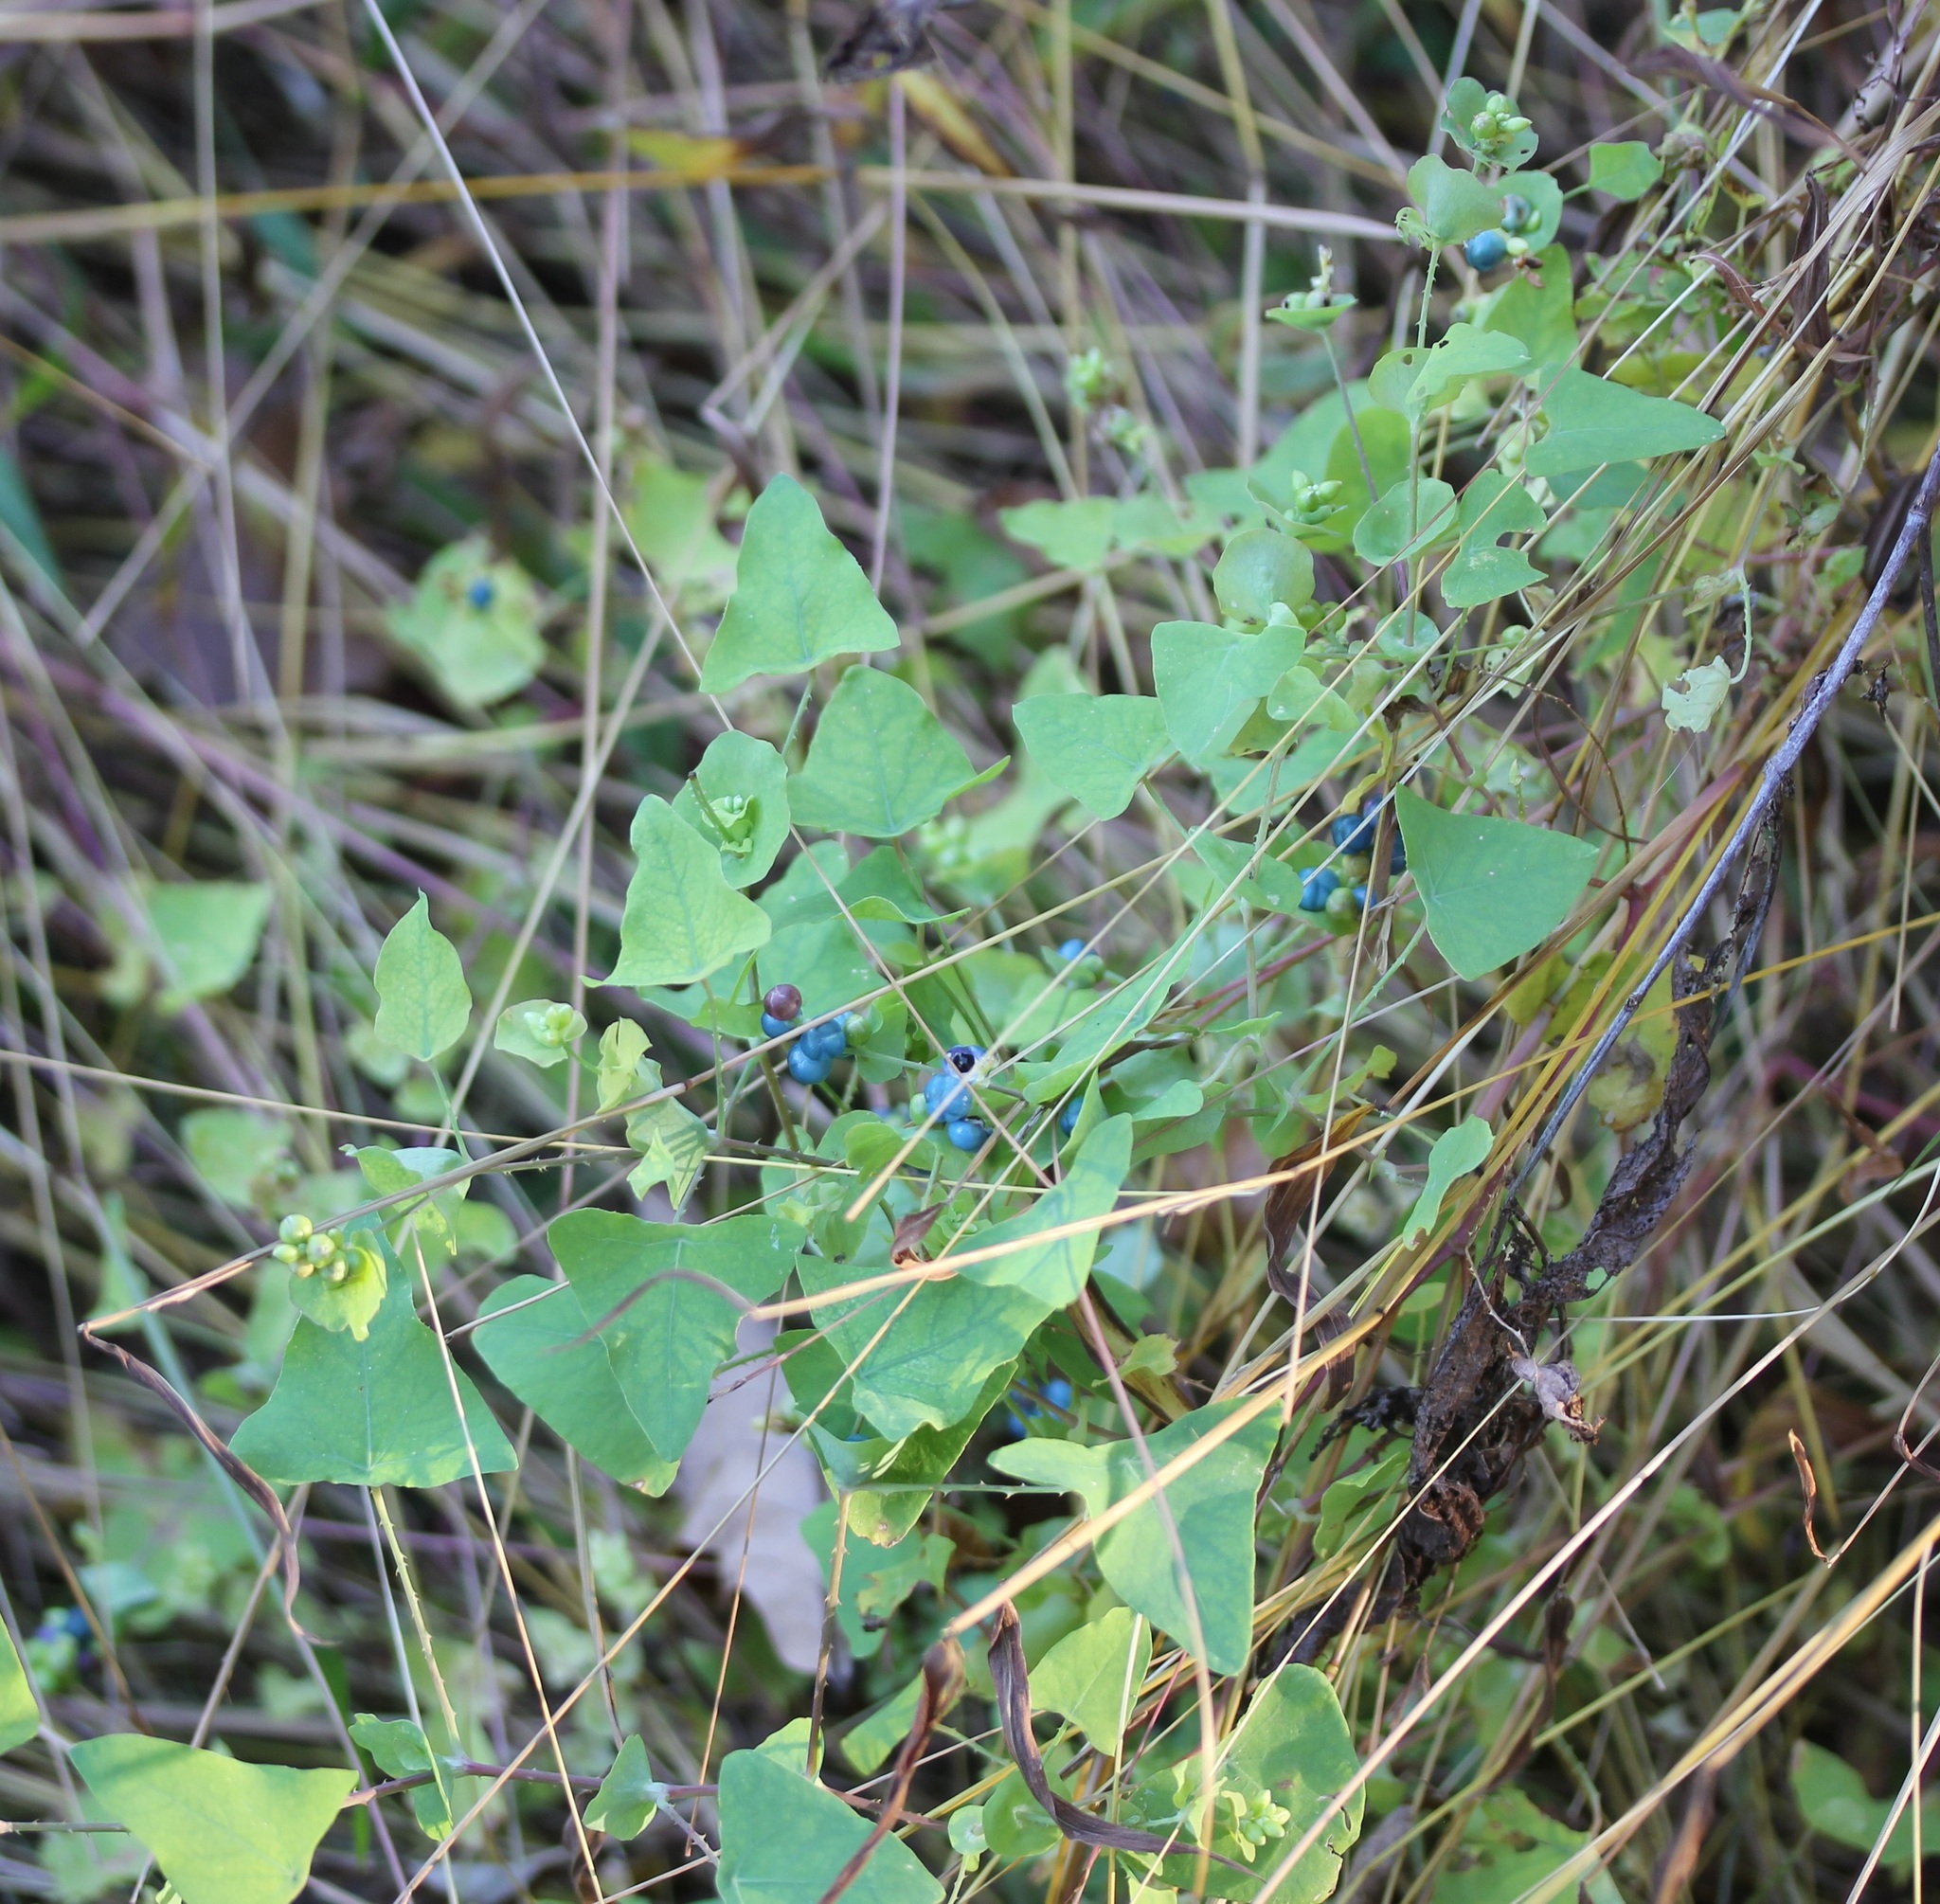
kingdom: Plantae
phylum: Tracheophyta
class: Magnoliopsida
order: Caryophyllales
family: Polygonaceae
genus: Persicaria
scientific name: Persicaria perfoliata
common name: Asiatic tearthumb
